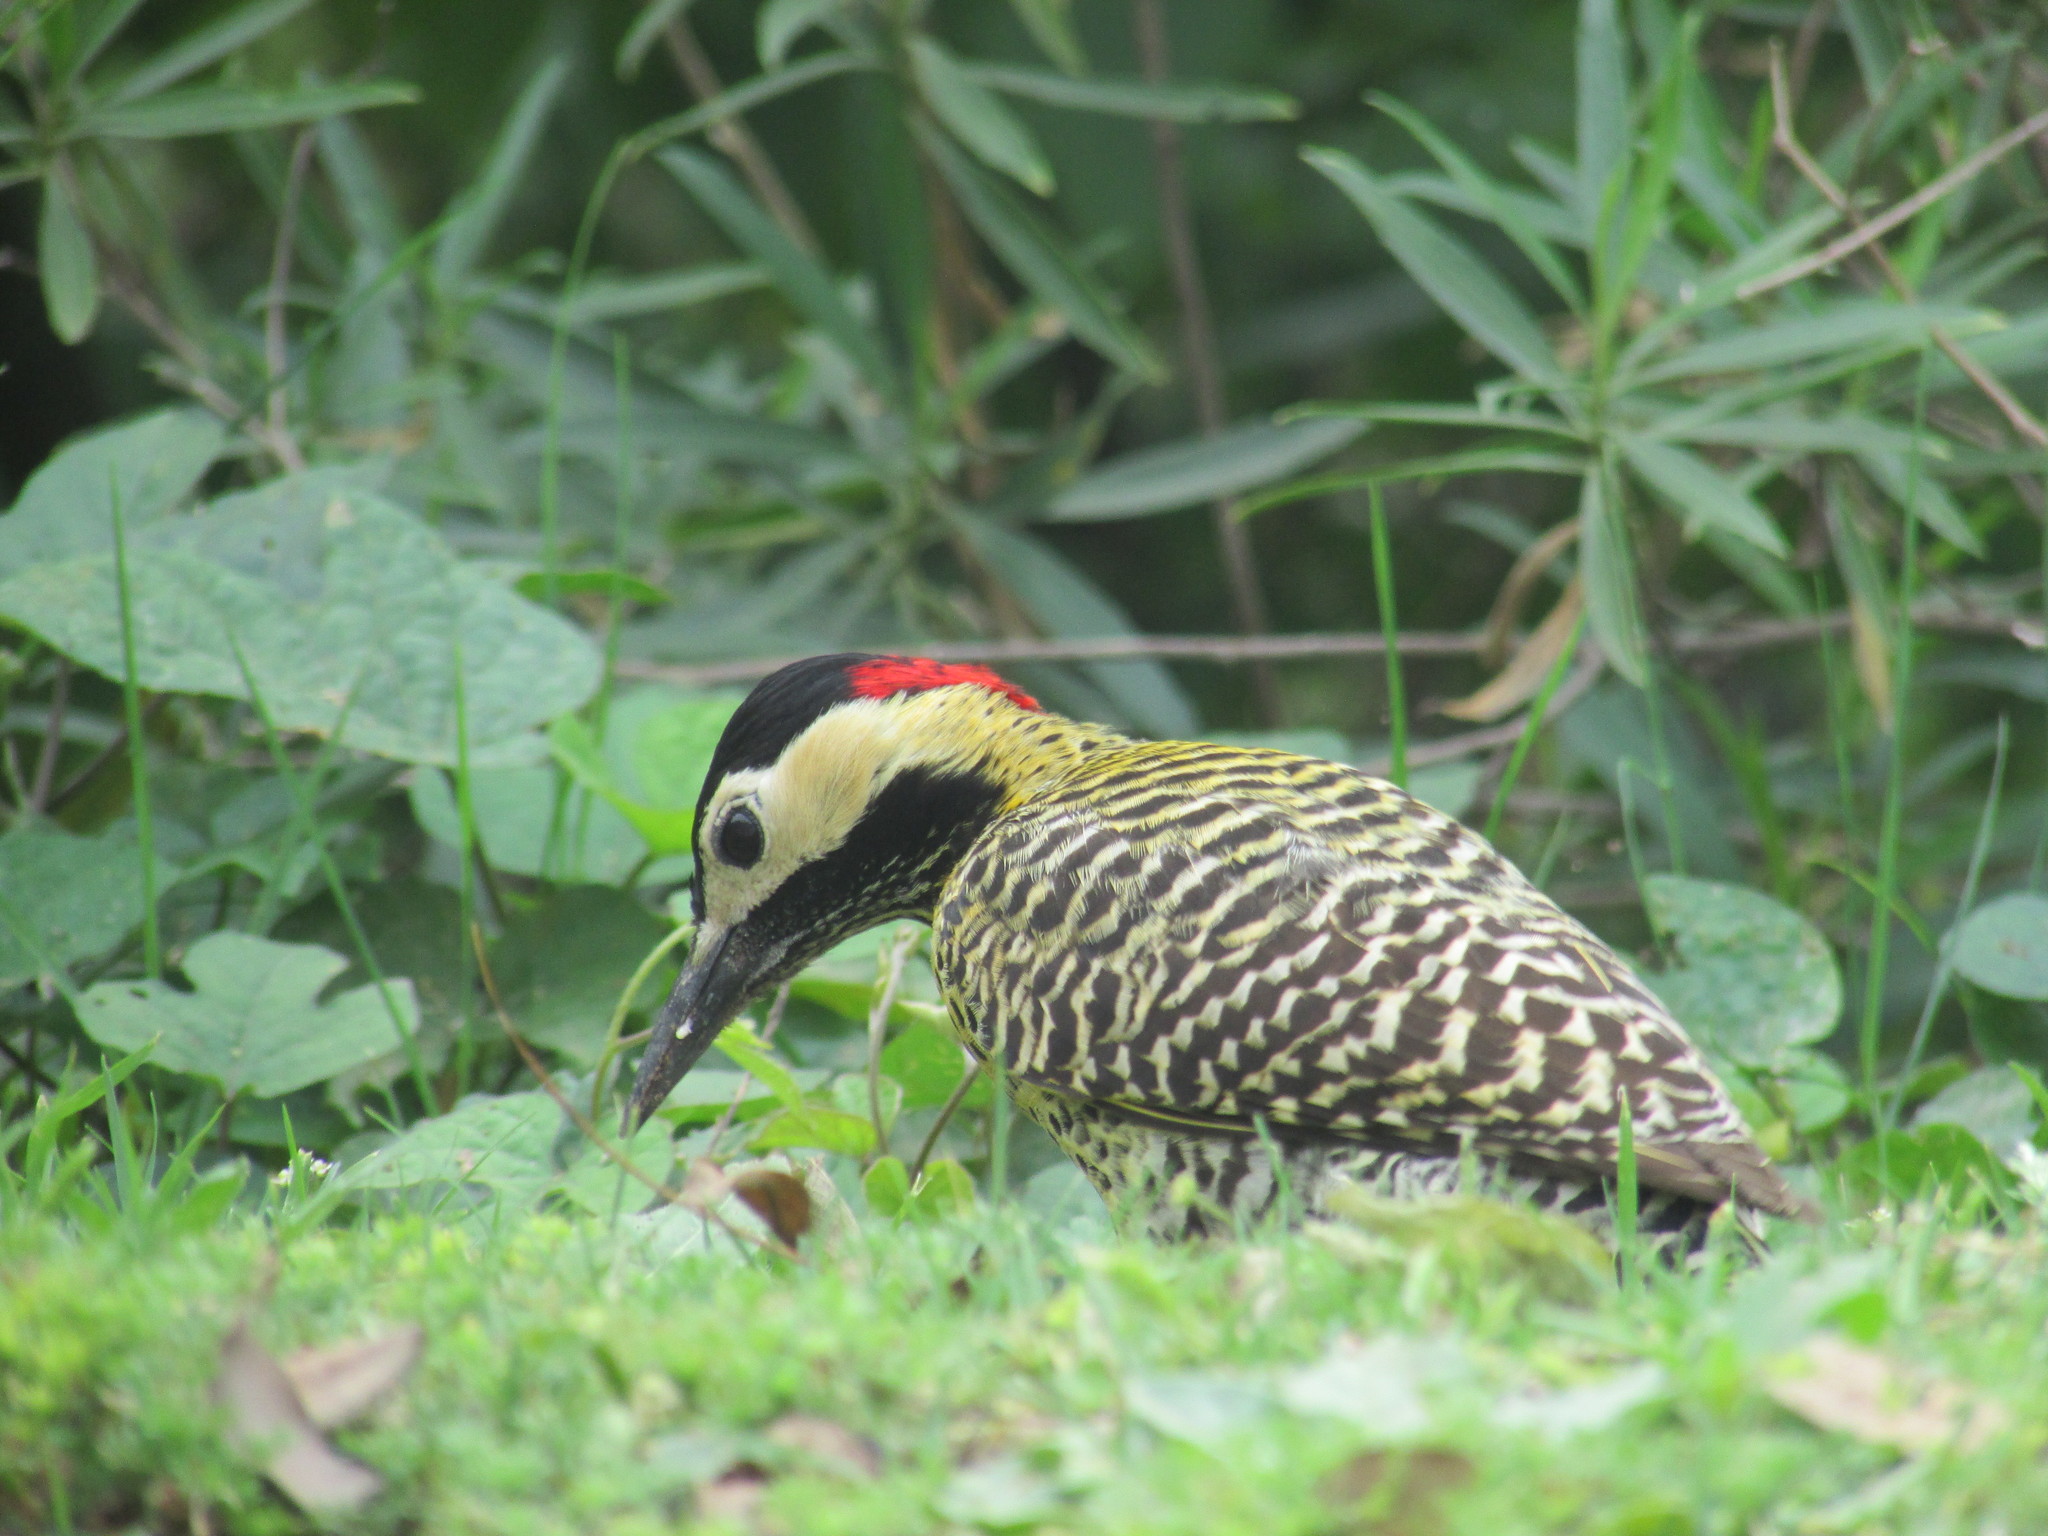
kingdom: Animalia
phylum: Chordata
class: Aves
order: Piciformes
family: Picidae
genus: Colaptes
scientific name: Colaptes melanochloros
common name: Green-barred woodpecker
